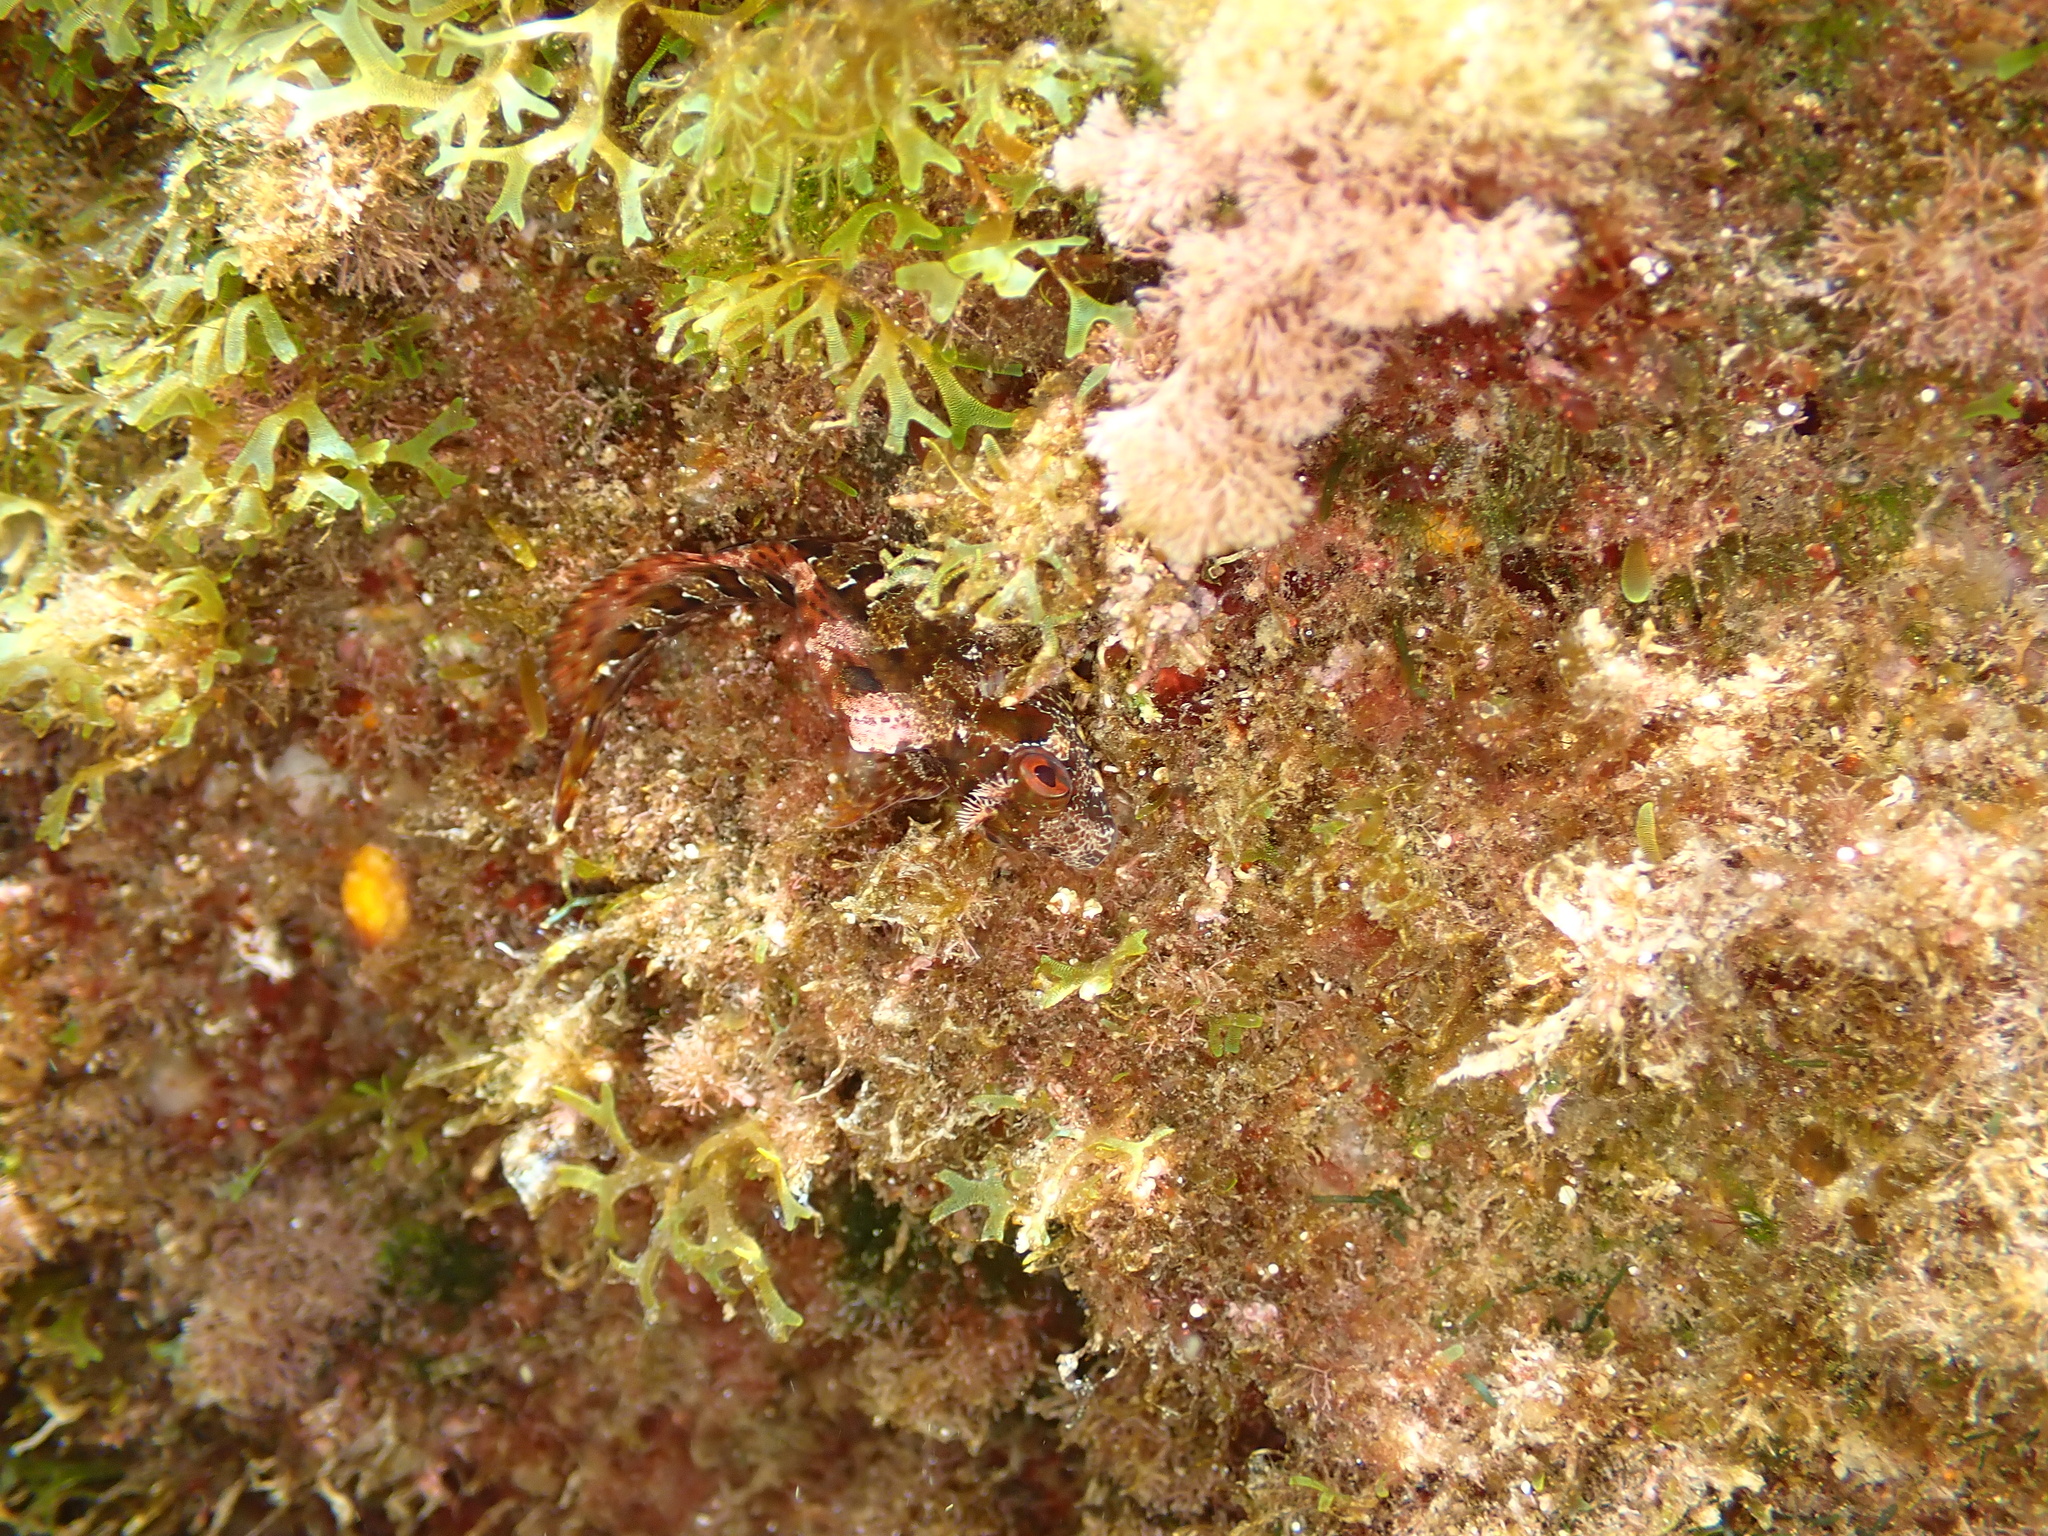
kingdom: Animalia
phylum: Chordata
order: Perciformes
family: Blenniidae
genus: Parablennius
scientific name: Parablennius gattorugine
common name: Tompot blenny
